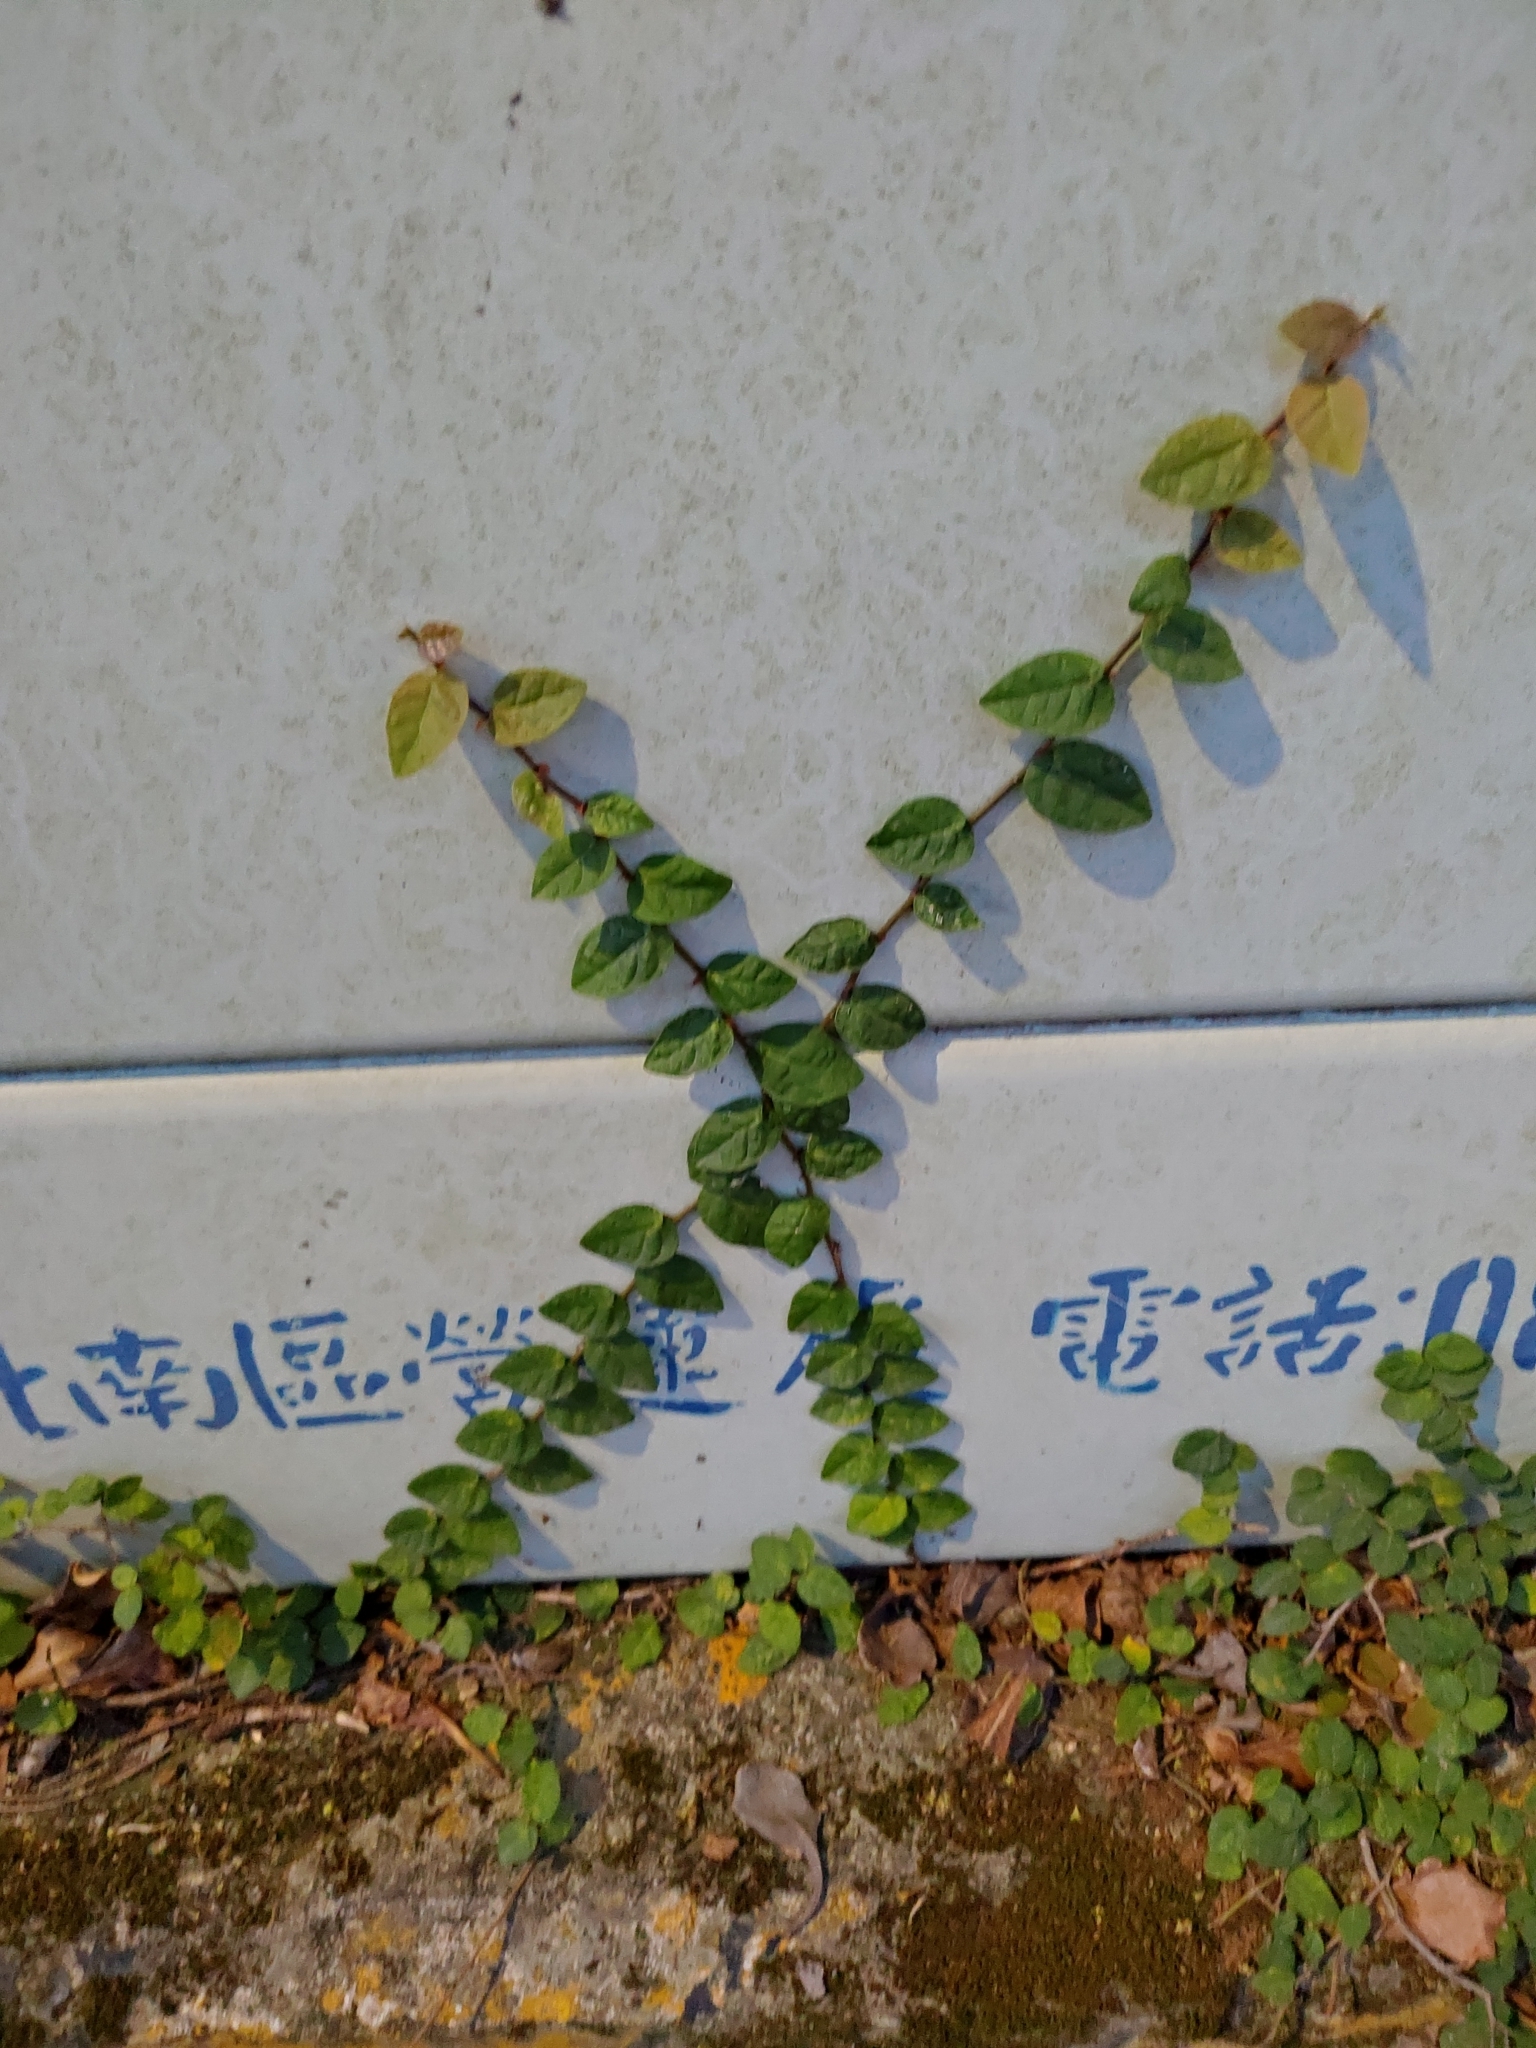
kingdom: Plantae
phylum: Tracheophyta
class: Magnoliopsida
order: Rosales
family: Moraceae
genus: Ficus
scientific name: Ficus pumila
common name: Climbingfig
